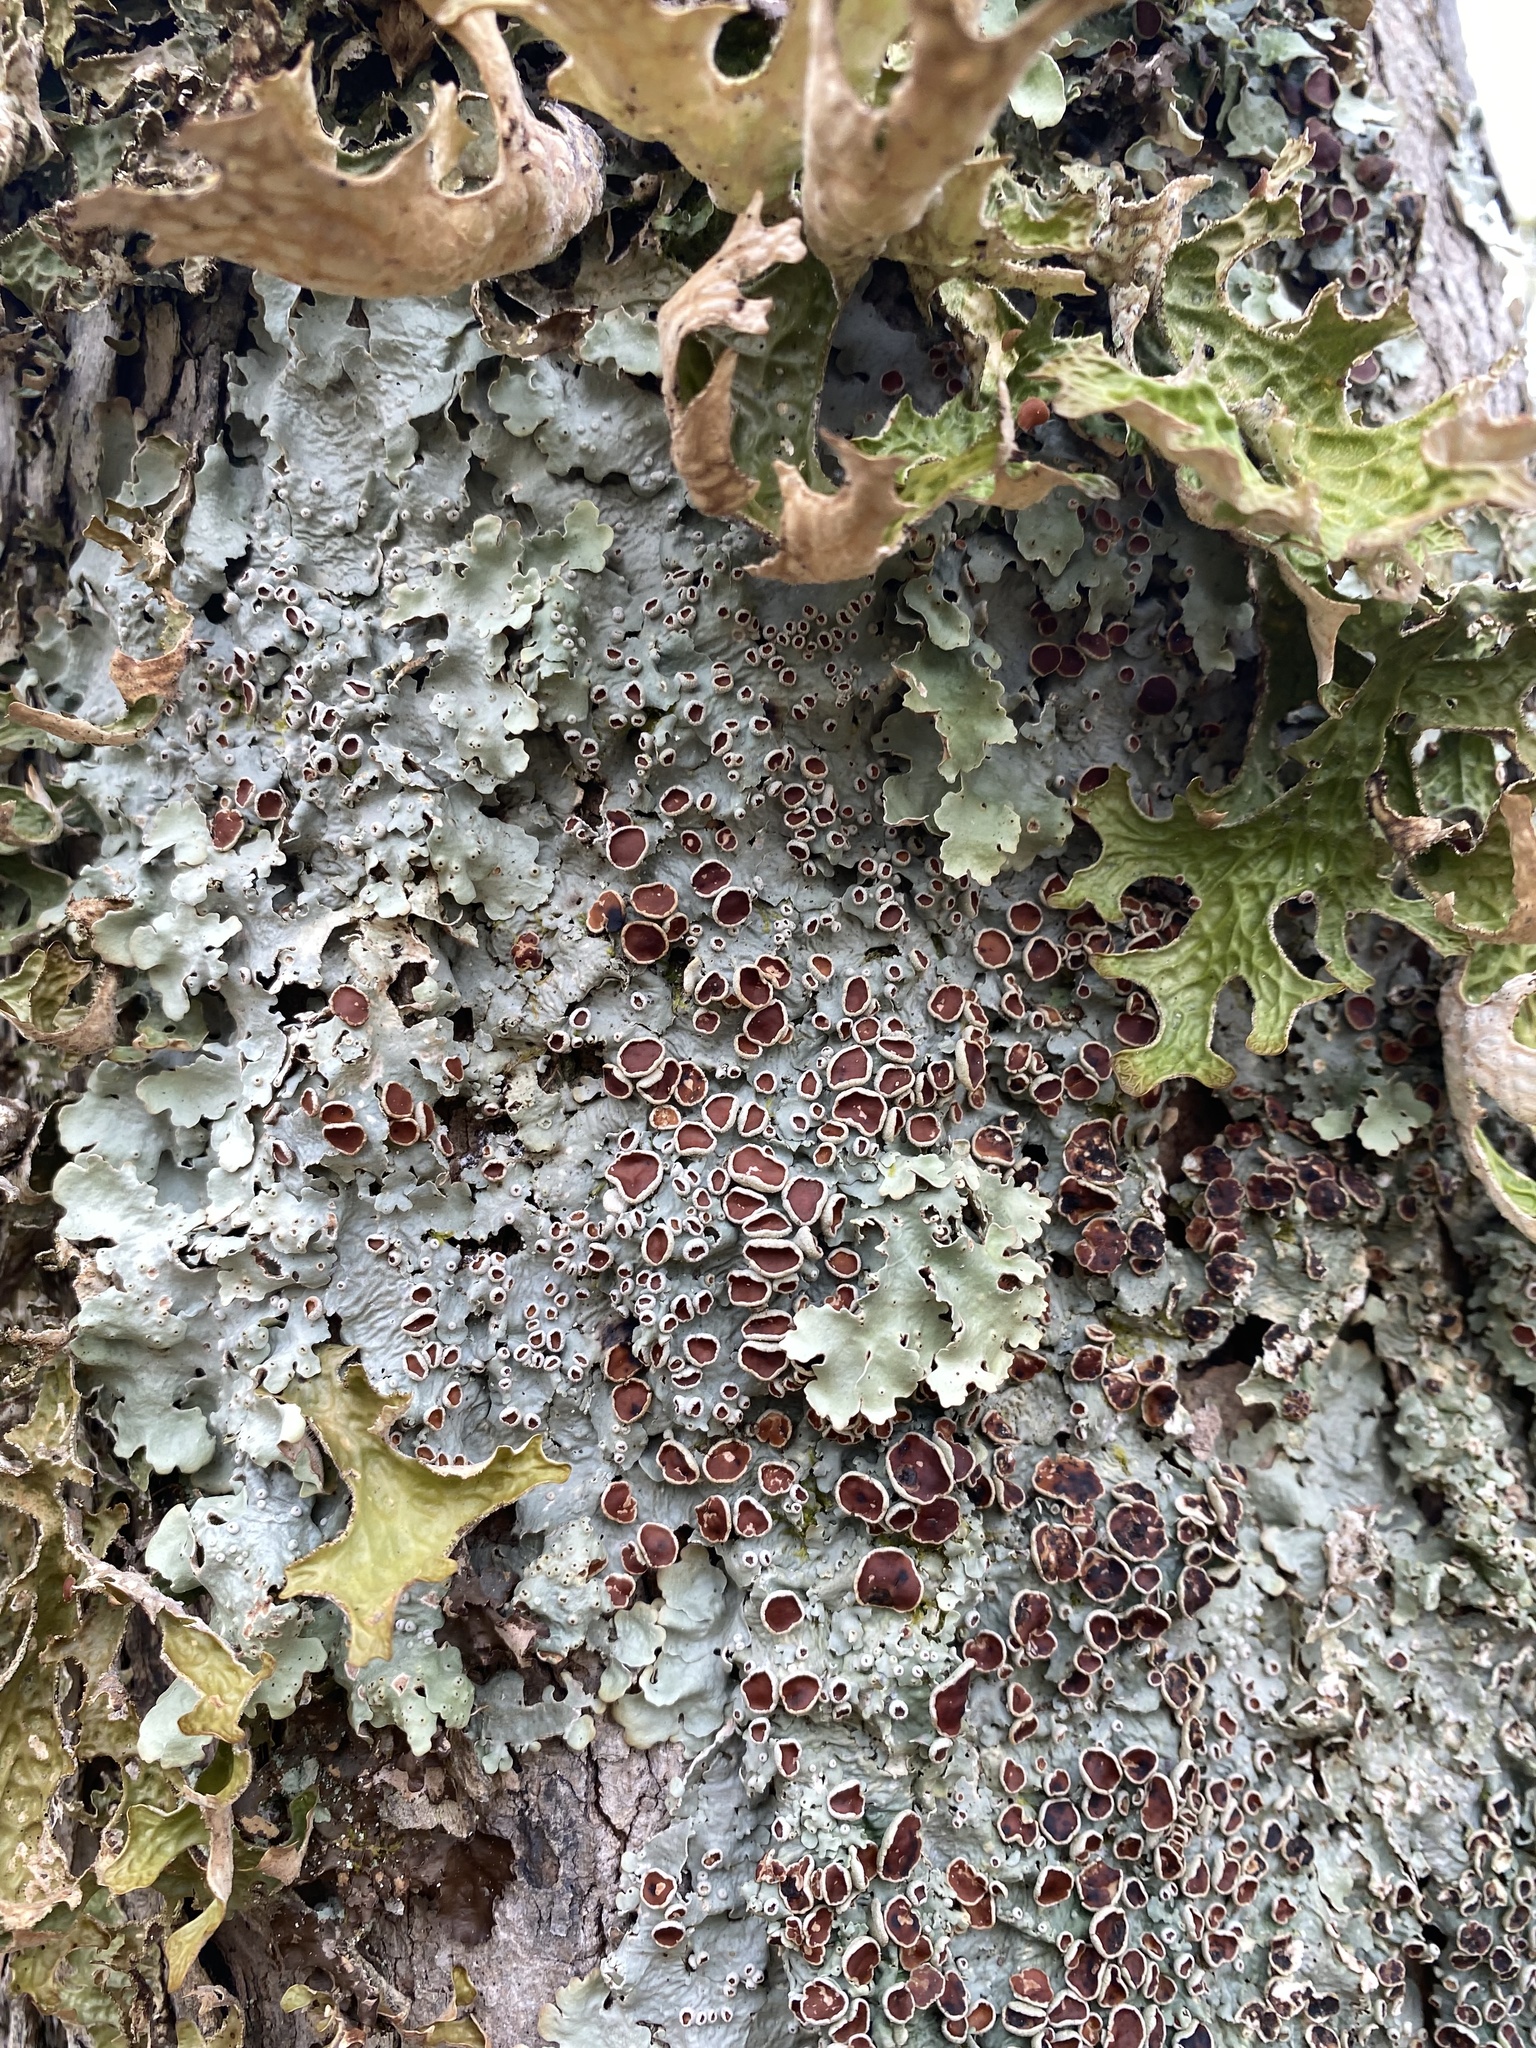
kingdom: Fungi
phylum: Ascomycota
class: Lecanoromycetes
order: Peltigerales
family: Lobariaceae
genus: Ricasolia
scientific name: Ricasolia quercizans
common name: Smooth lungwort
